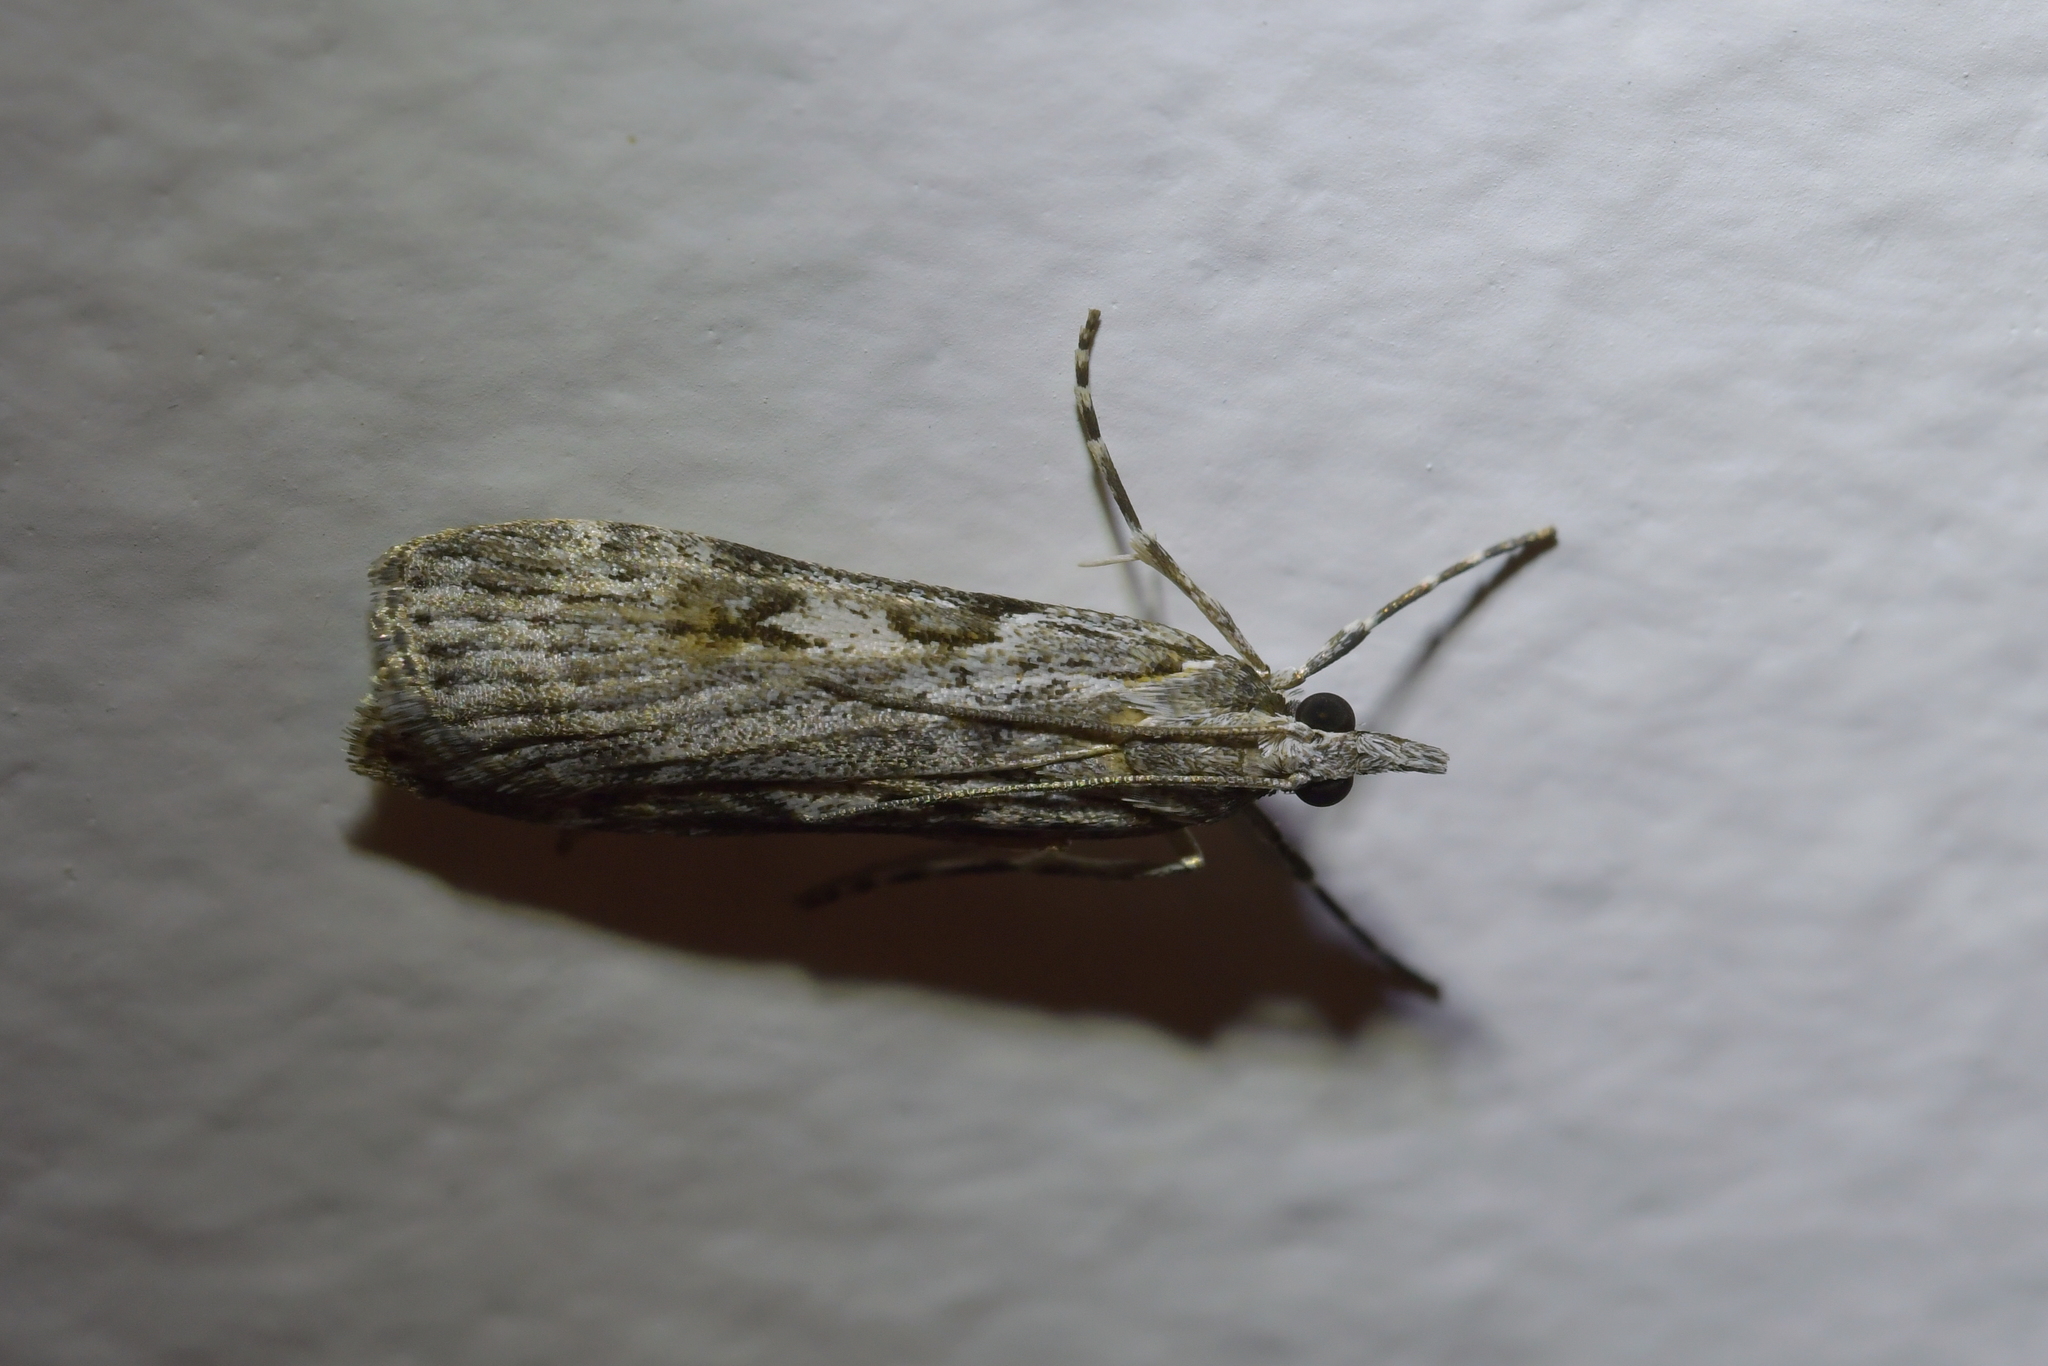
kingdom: Animalia
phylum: Arthropoda
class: Insecta
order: Lepidoptera
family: Crambidae
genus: Scoparia
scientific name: Scoparia halopis
